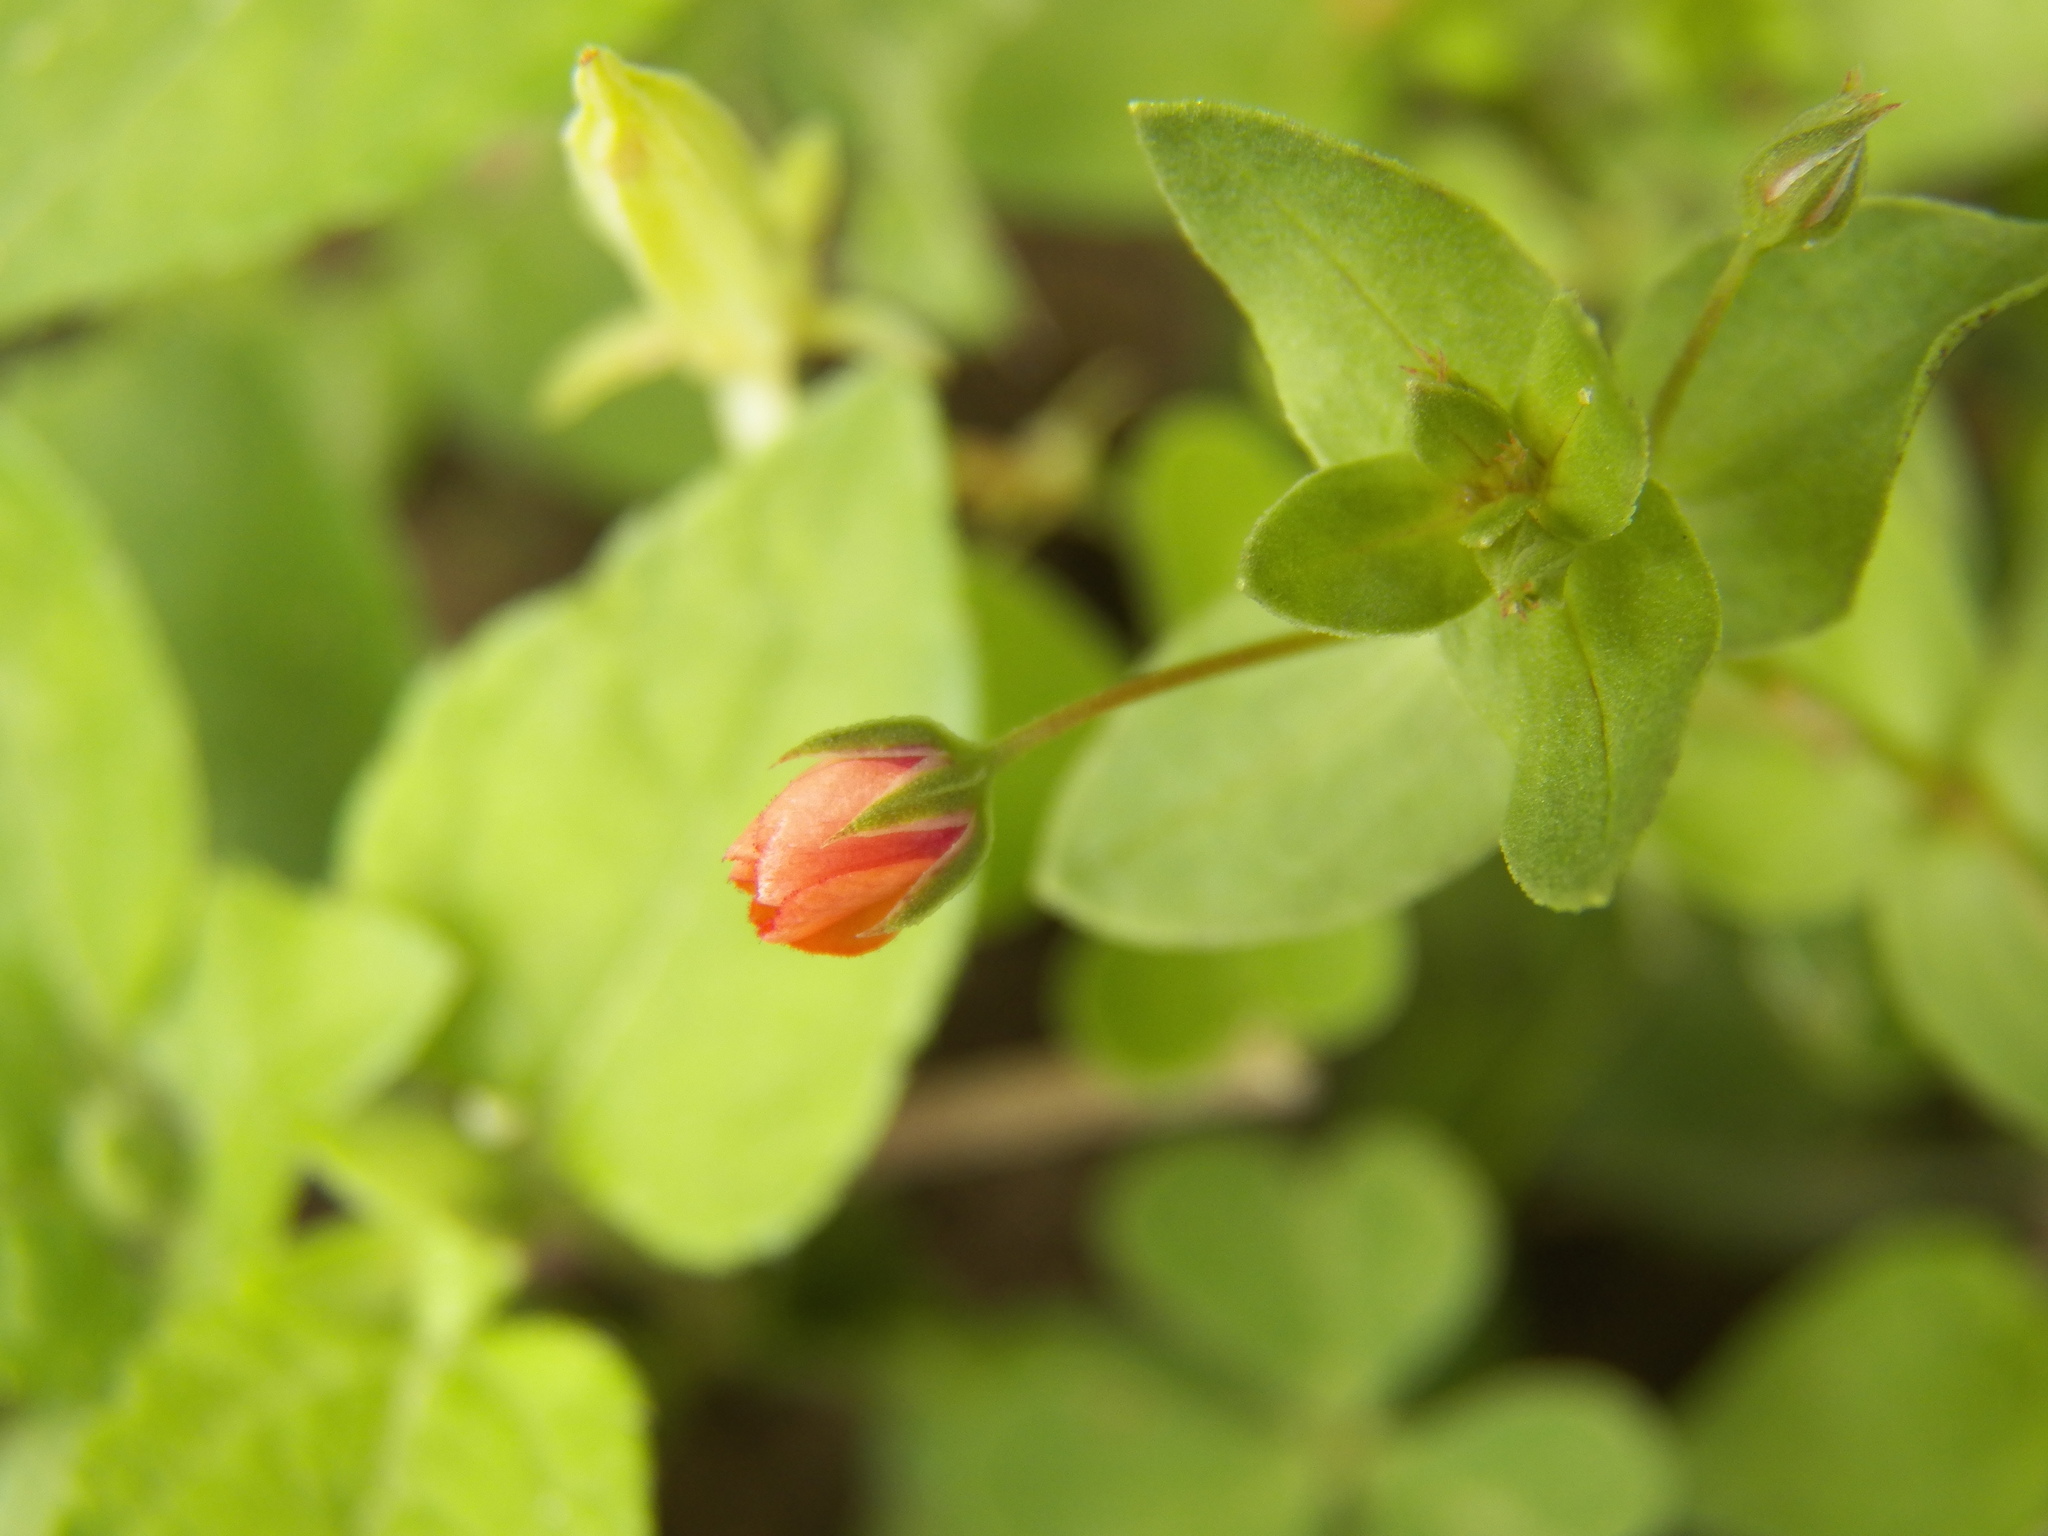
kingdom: Plantae
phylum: Tracheophyta
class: Magnoliopsida
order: Ericales
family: Primulaceae
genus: Lysimachia
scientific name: Lysimachia arvensis
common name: Scarlet pimpernel
